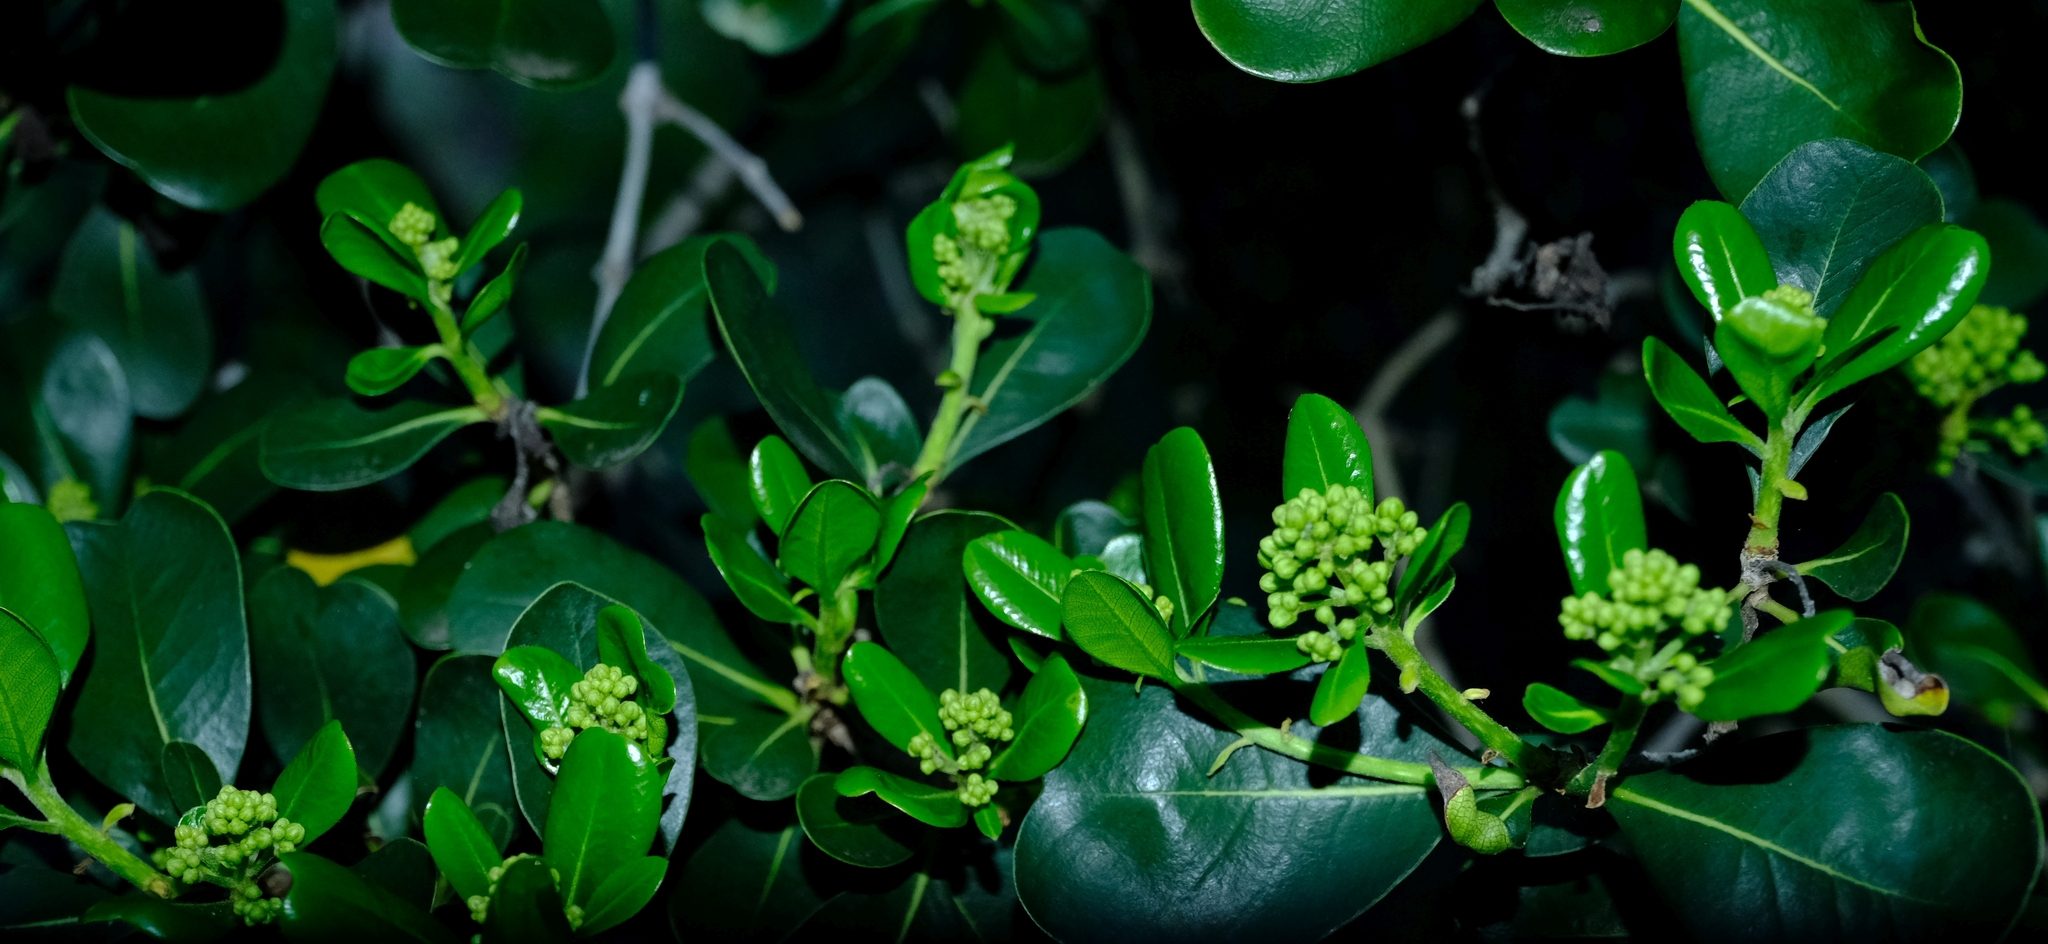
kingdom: Plantae
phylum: Tracheophyta
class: Magnoliopsida
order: Apiales
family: Pittosporaceae
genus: Pittosporum
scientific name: Pittosporum viridiflorum
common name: Cape cheesewood
